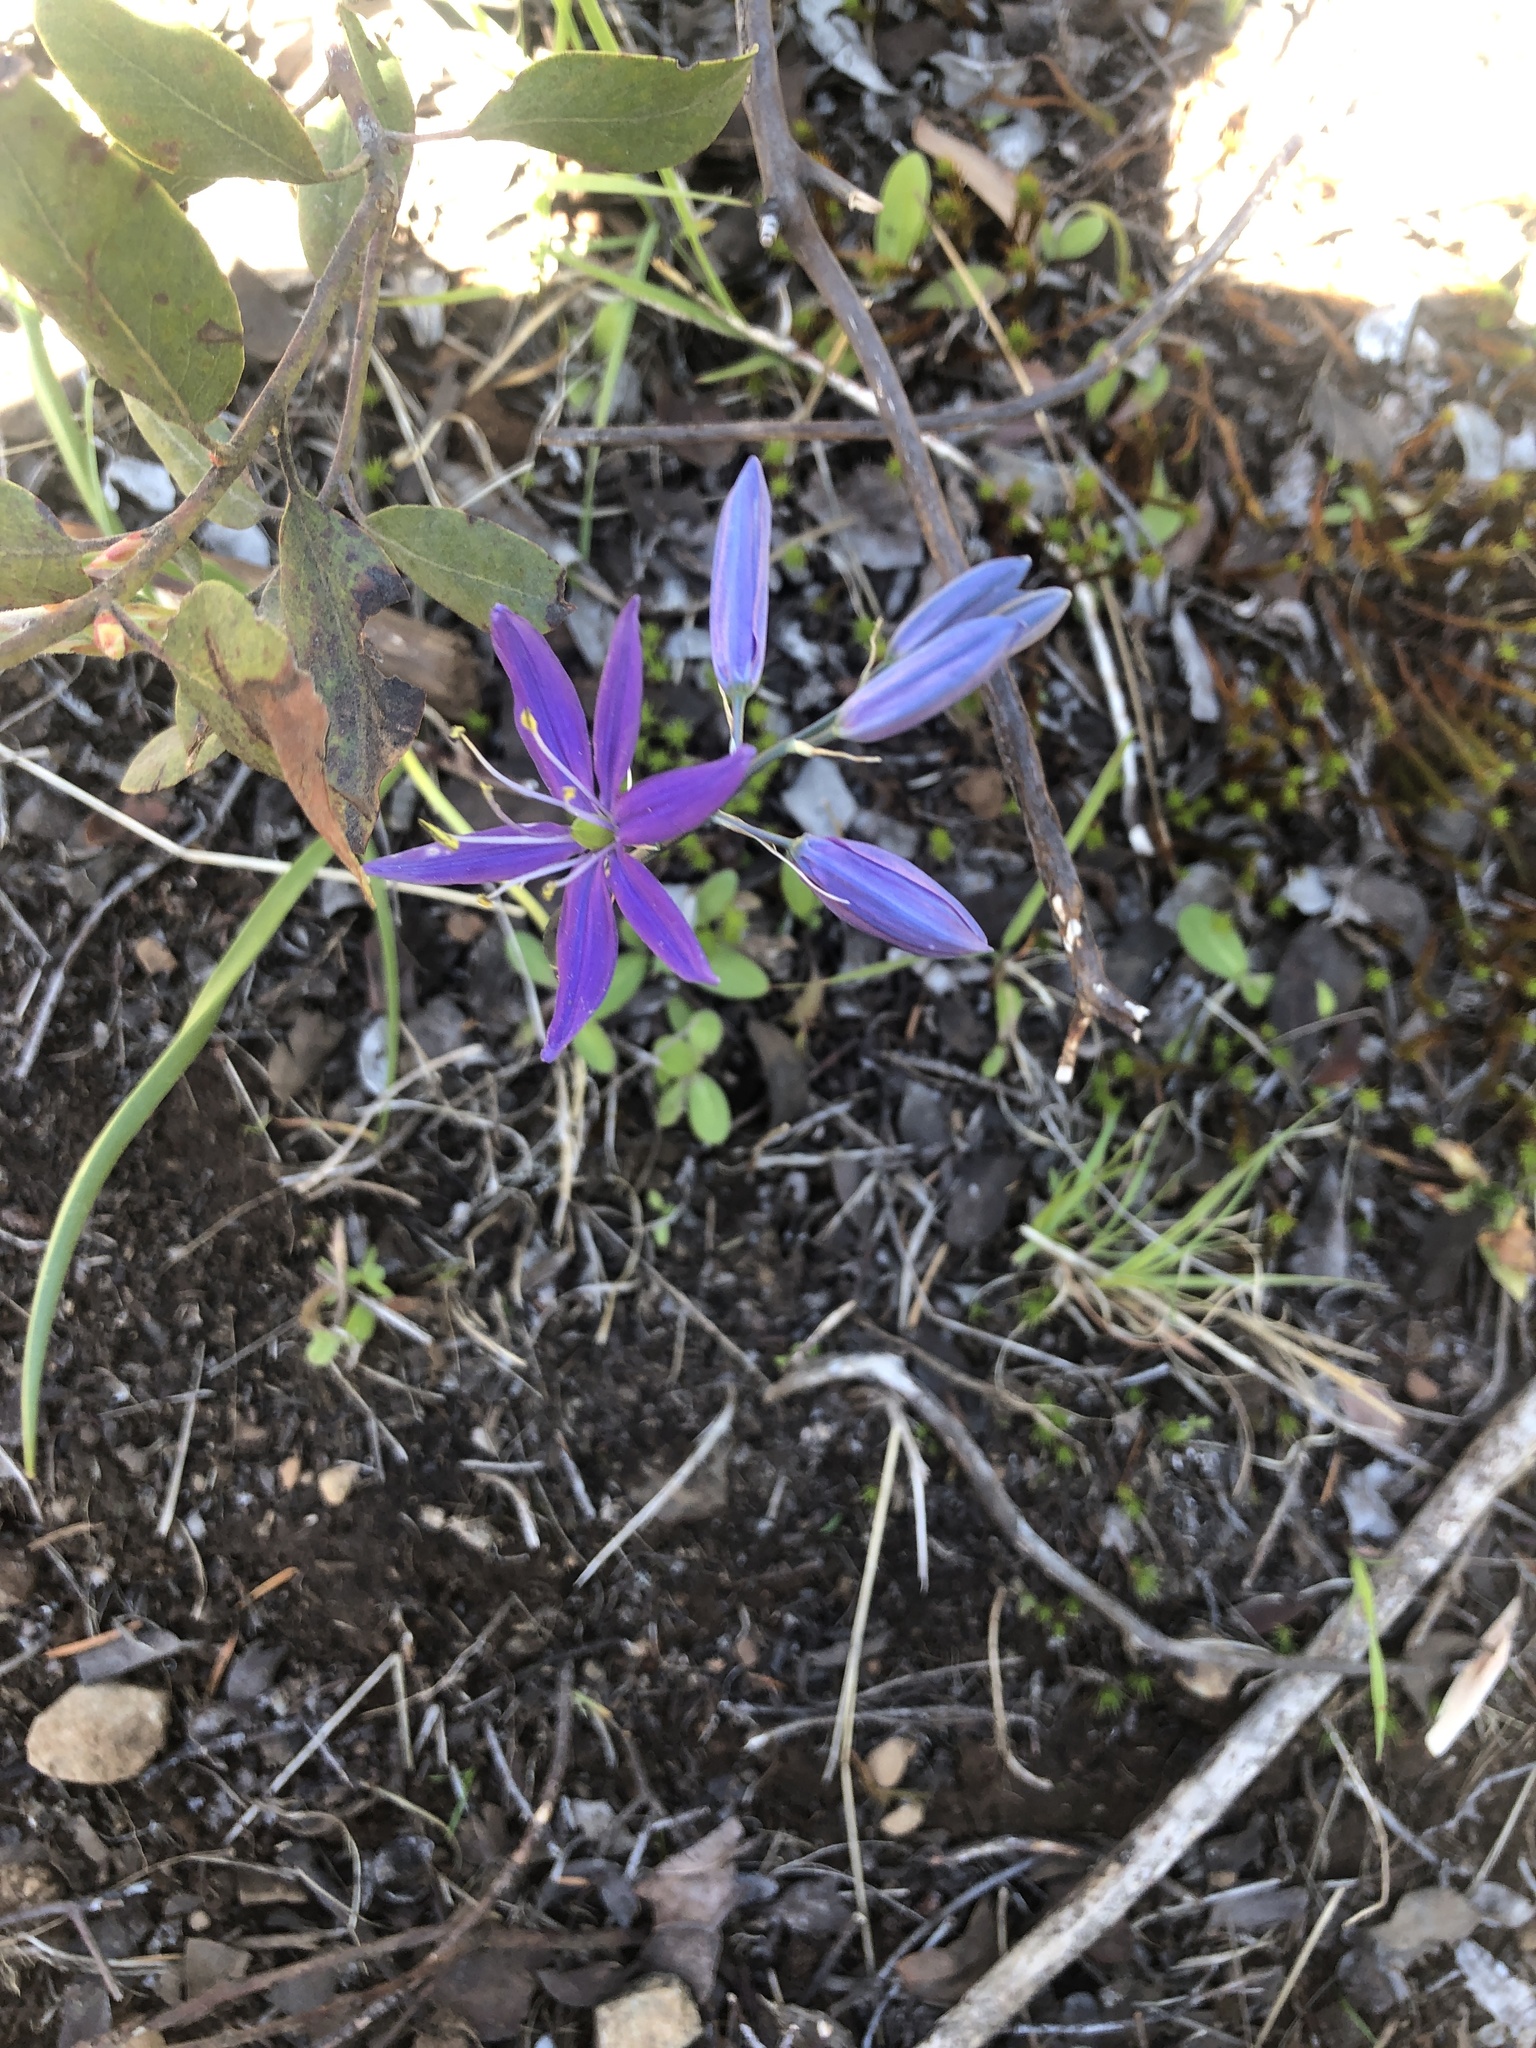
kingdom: Plantae
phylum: Tracheophyta
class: Liliopsida
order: Asparagales
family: Asparagaceae
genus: Camassia
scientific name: Camassia quamash
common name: Common camas
